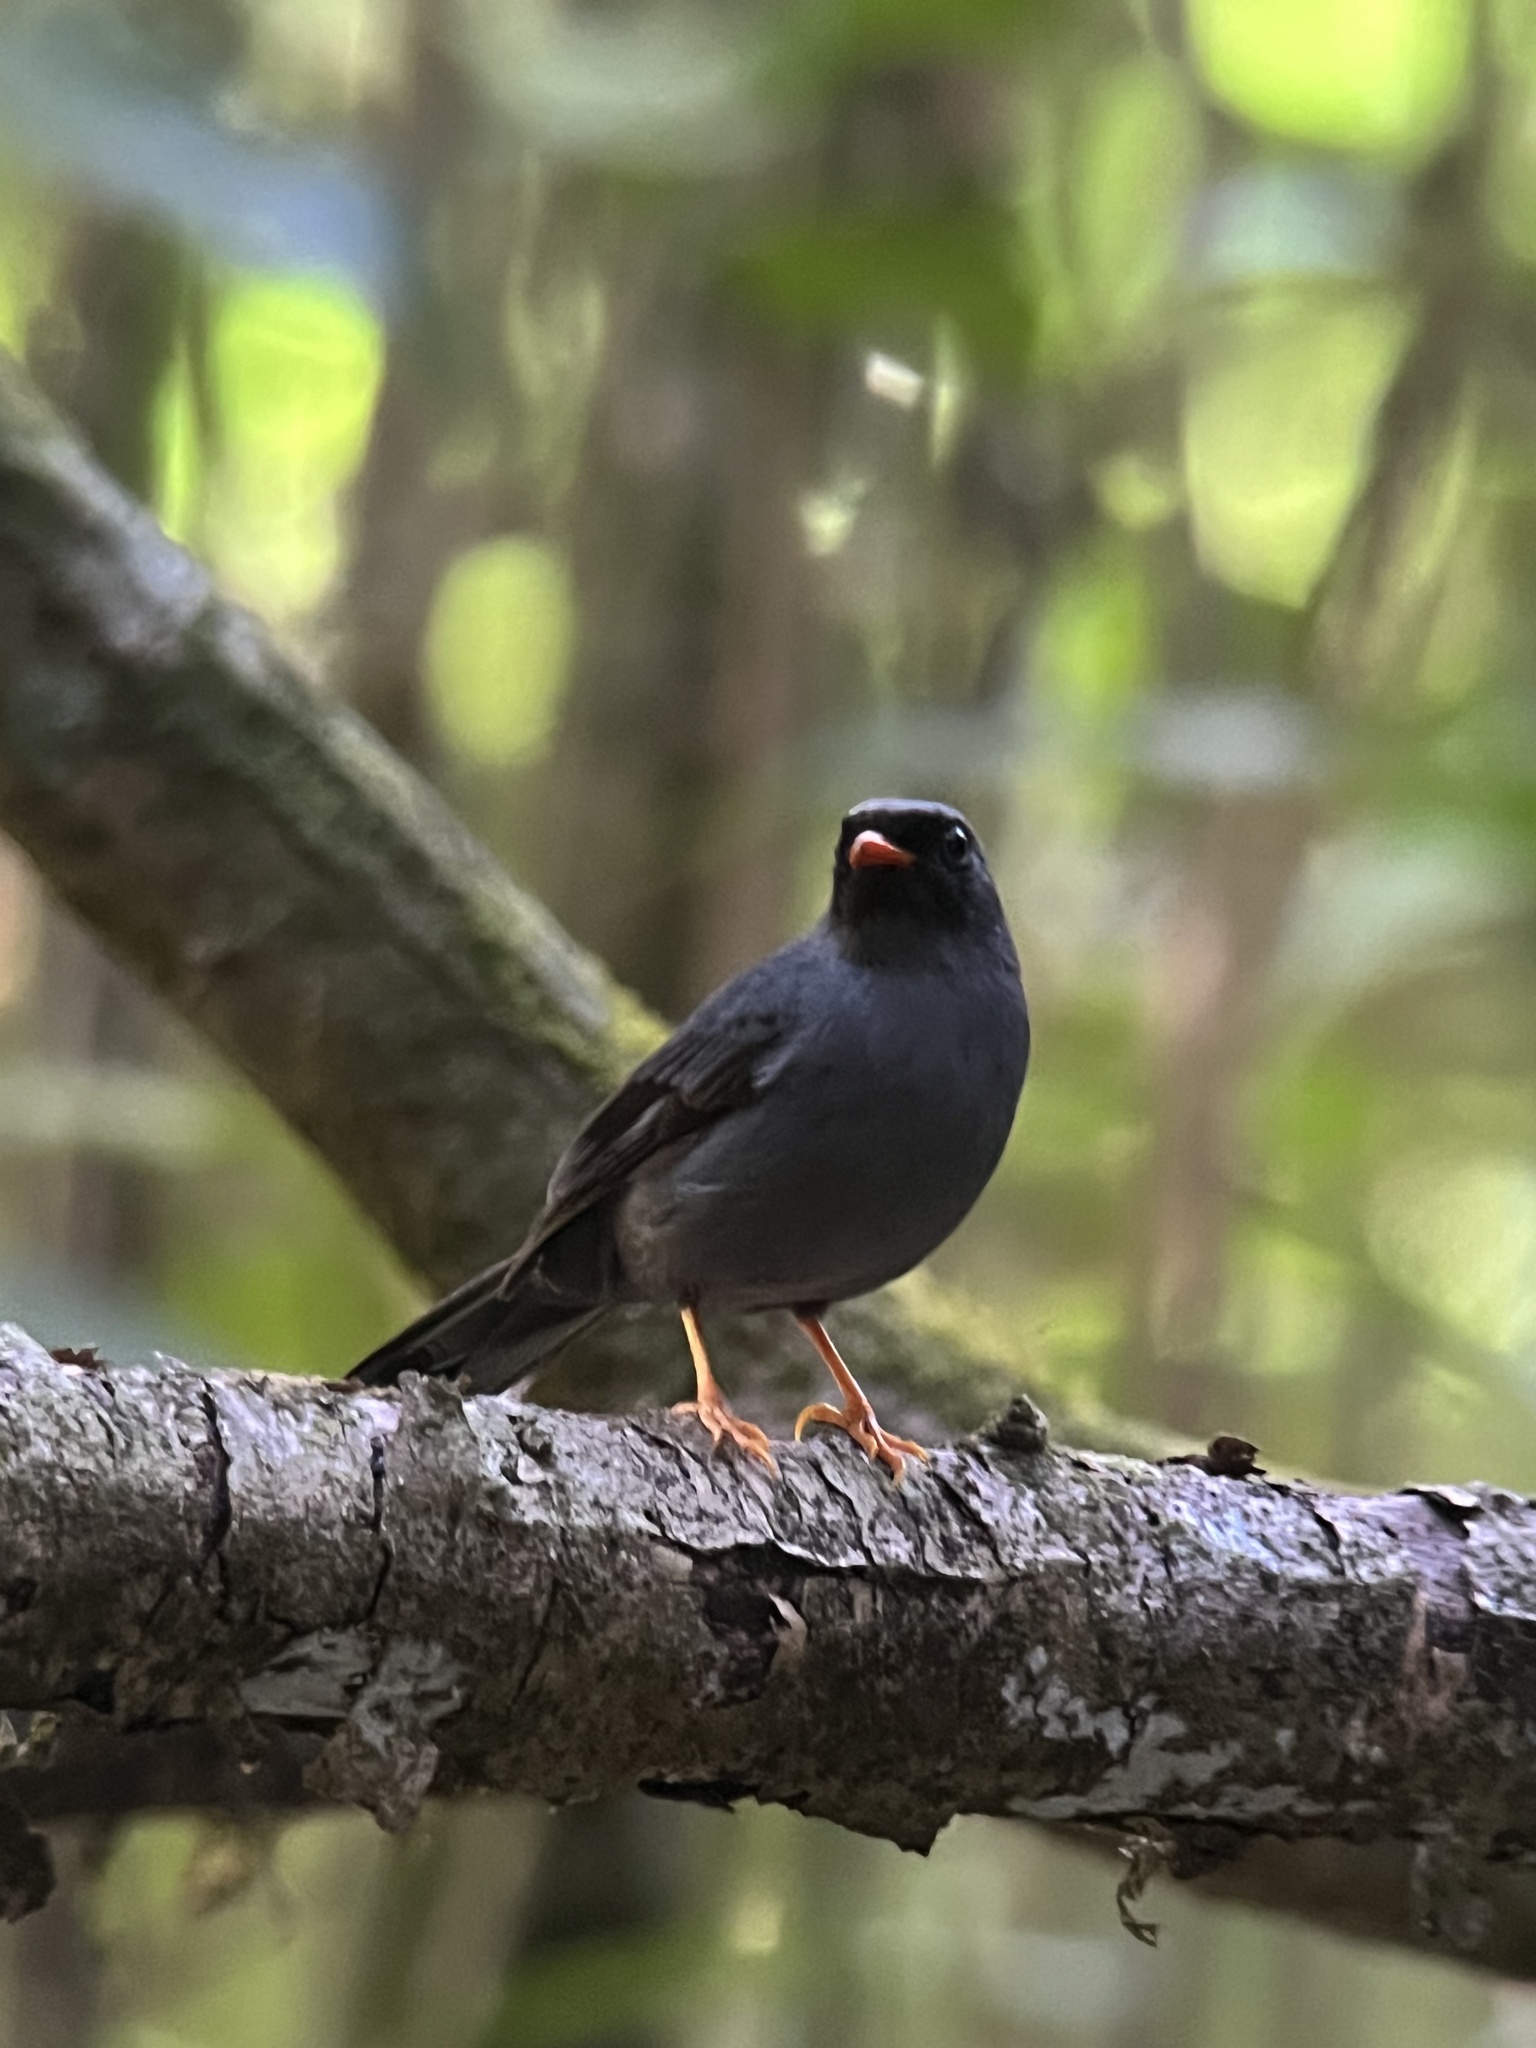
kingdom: Animalia
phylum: Chordata
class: Aves
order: Passeriformes
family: Turdidae
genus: Myadestes
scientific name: Myadestes melanops
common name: Black-faced solitaire
